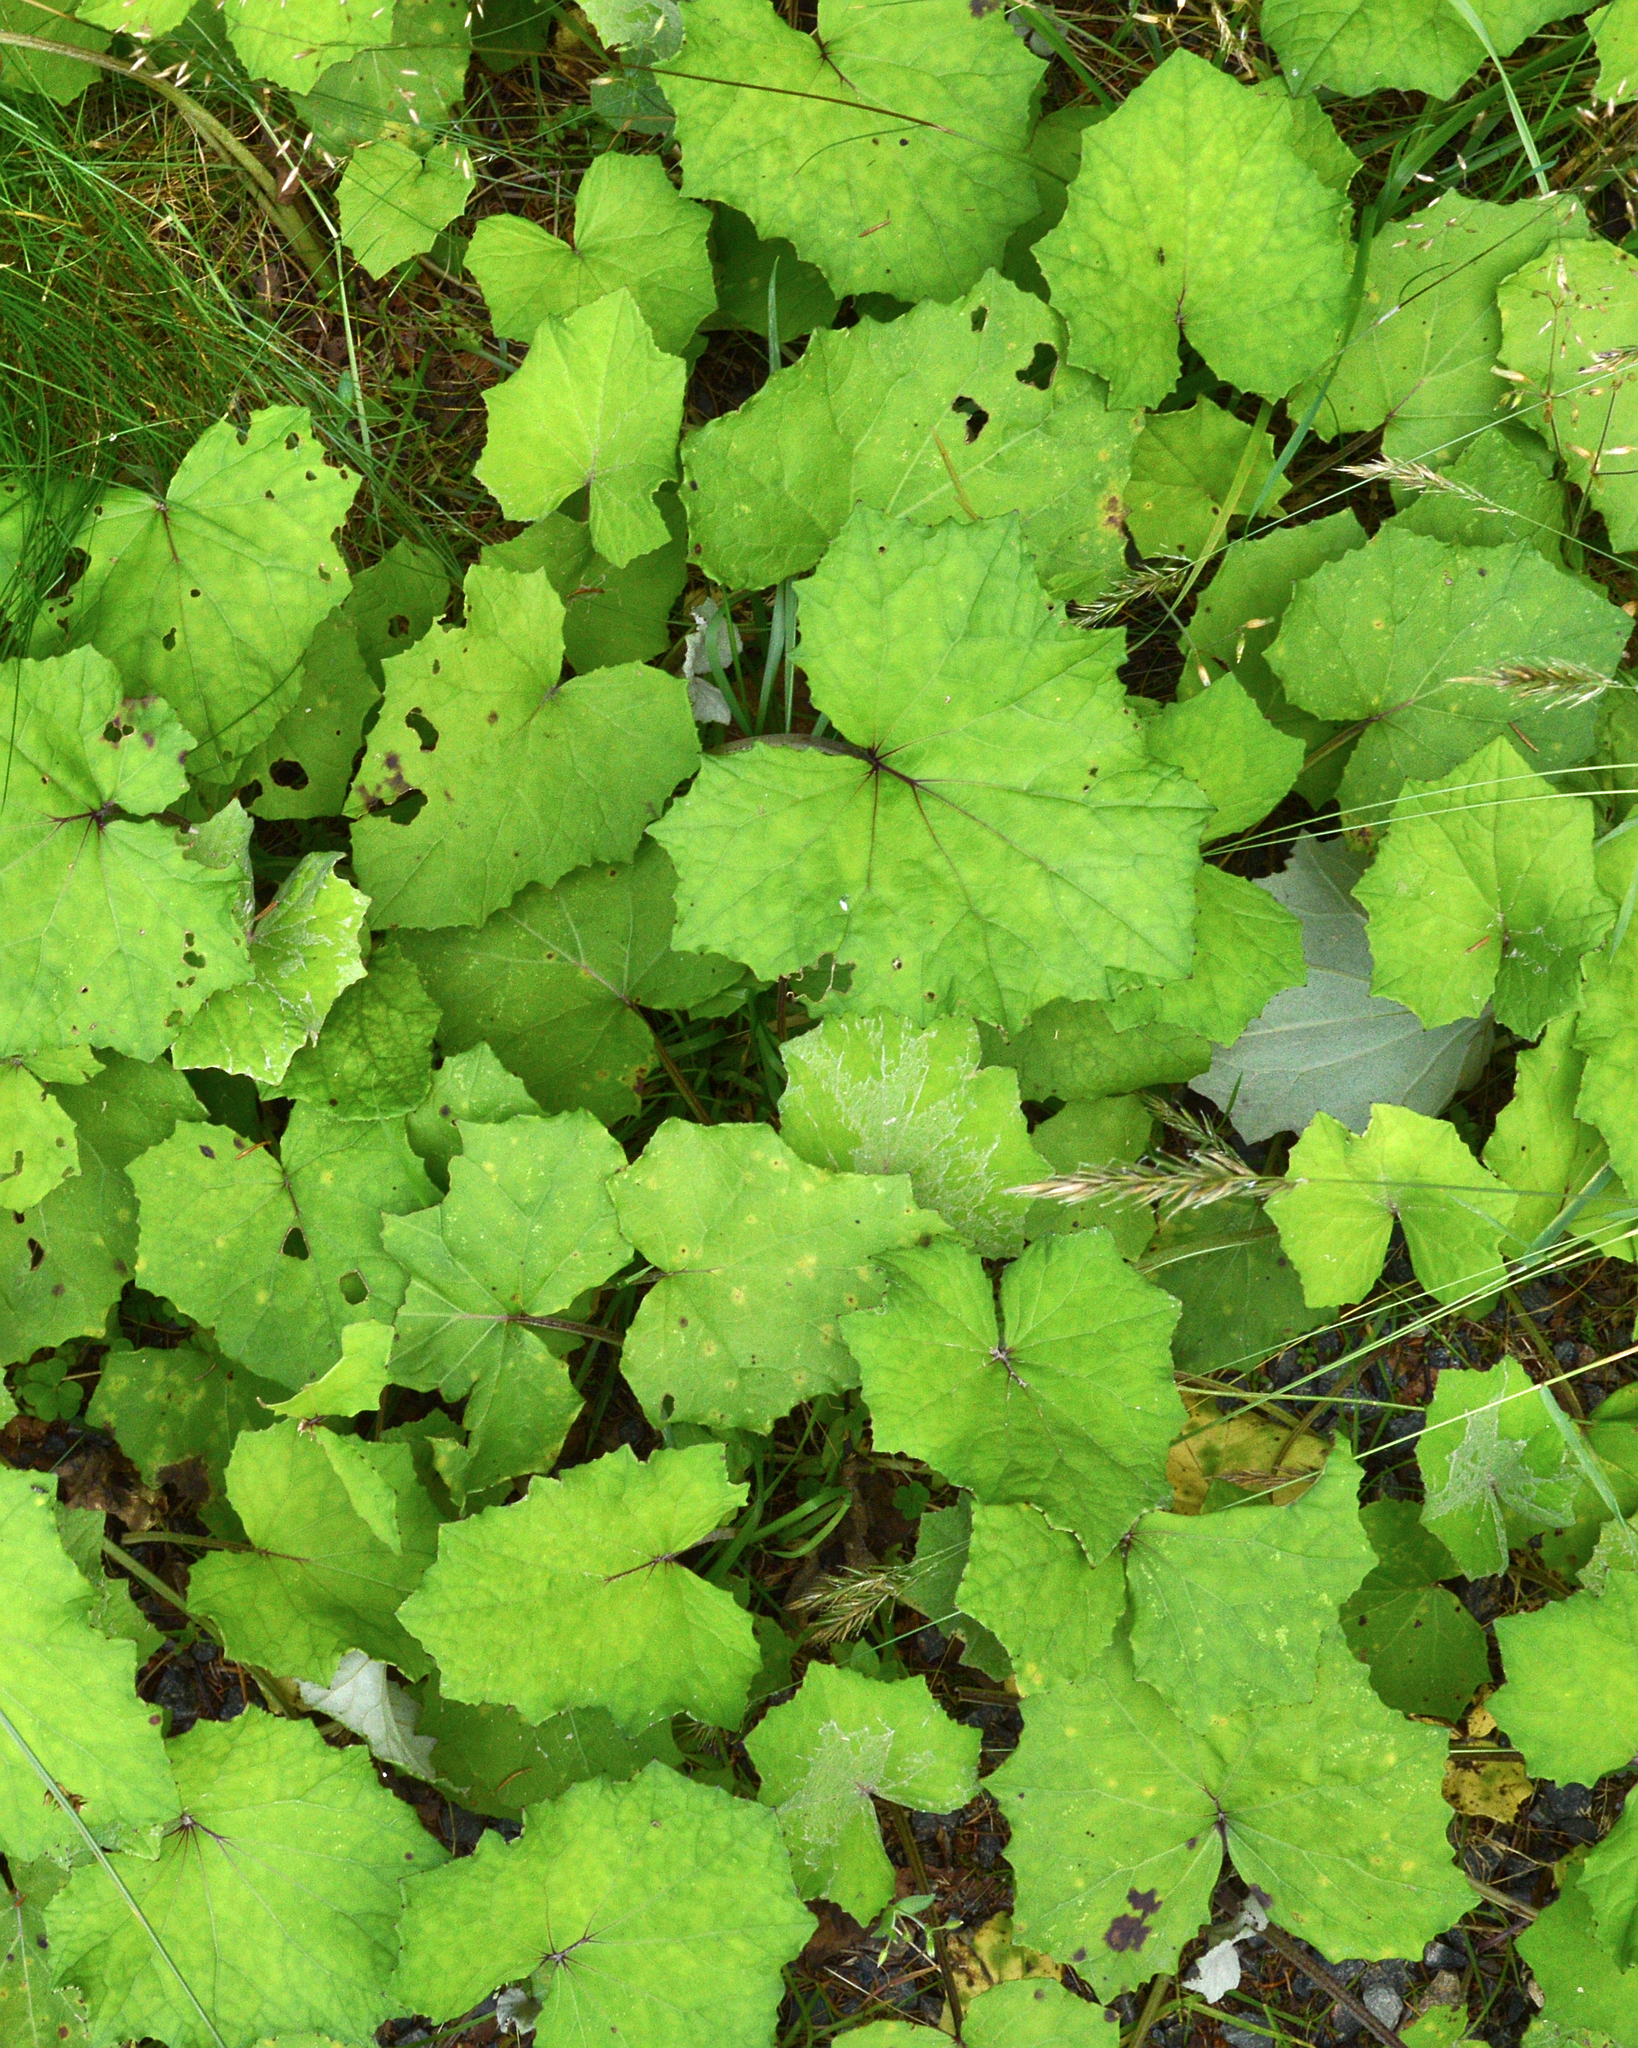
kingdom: Plantae
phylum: Tracheophyta
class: Magnoliopsida
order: Asterales
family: Asteraceae
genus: Tussilago
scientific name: Tussilago farfara
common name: Coltsfoot
